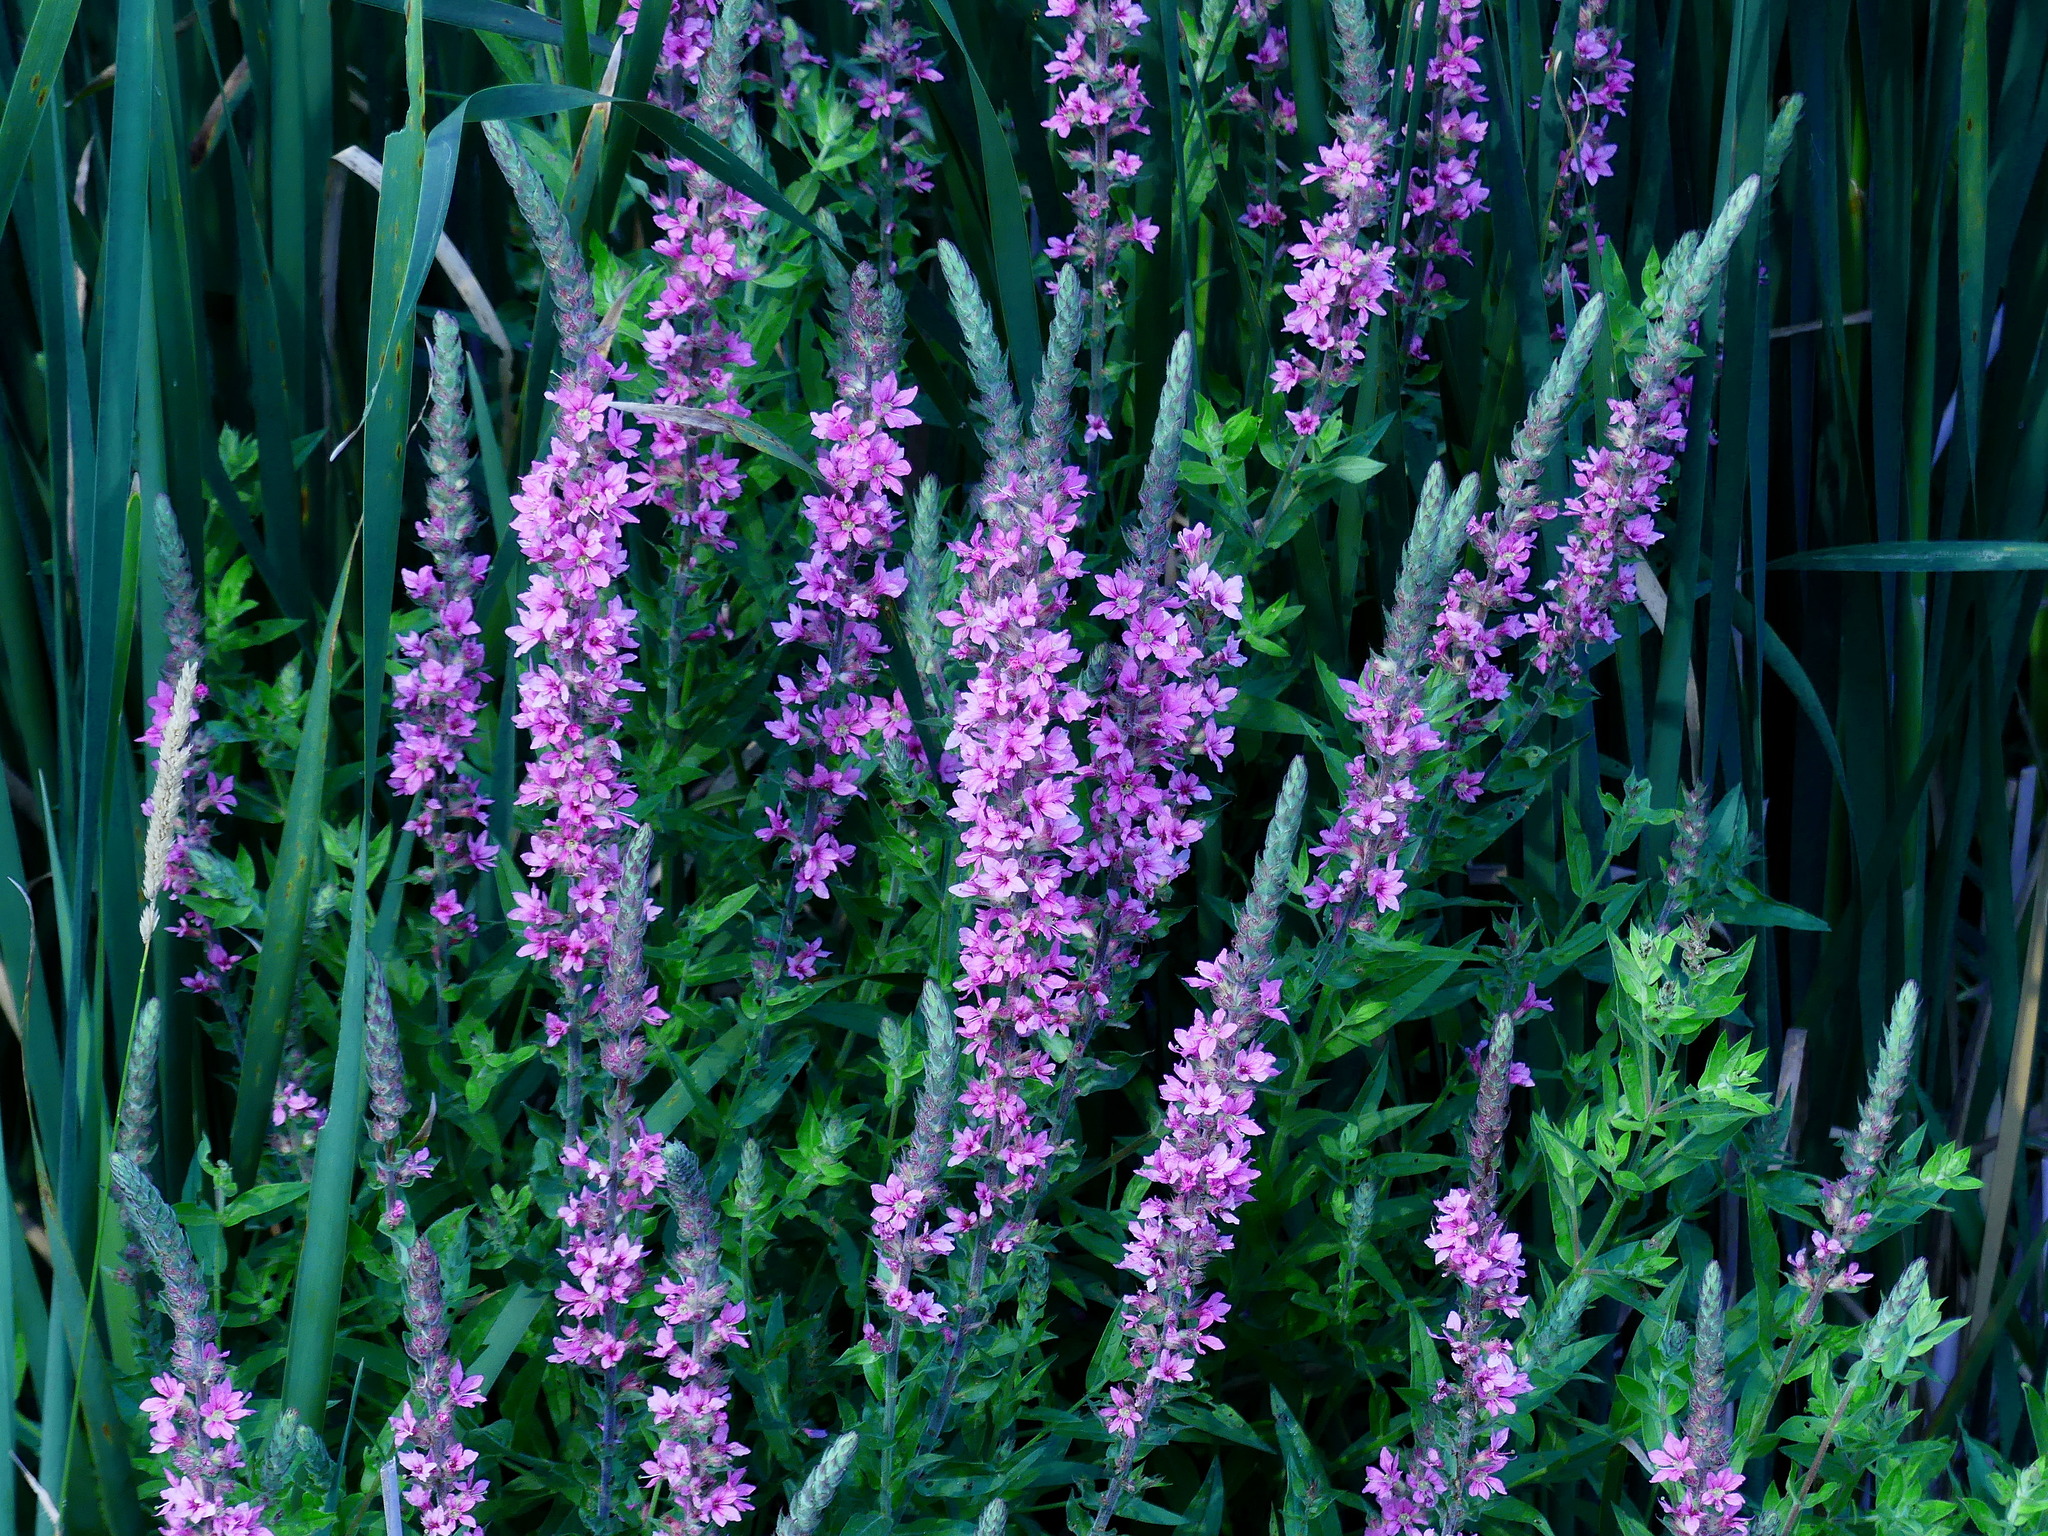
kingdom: Plantae
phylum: Tracheophyta
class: Magnoliopsida
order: Myrtales
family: Lythraceae
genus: Lythrum
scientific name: Lythrum salicaria
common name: Purple loosestrife
